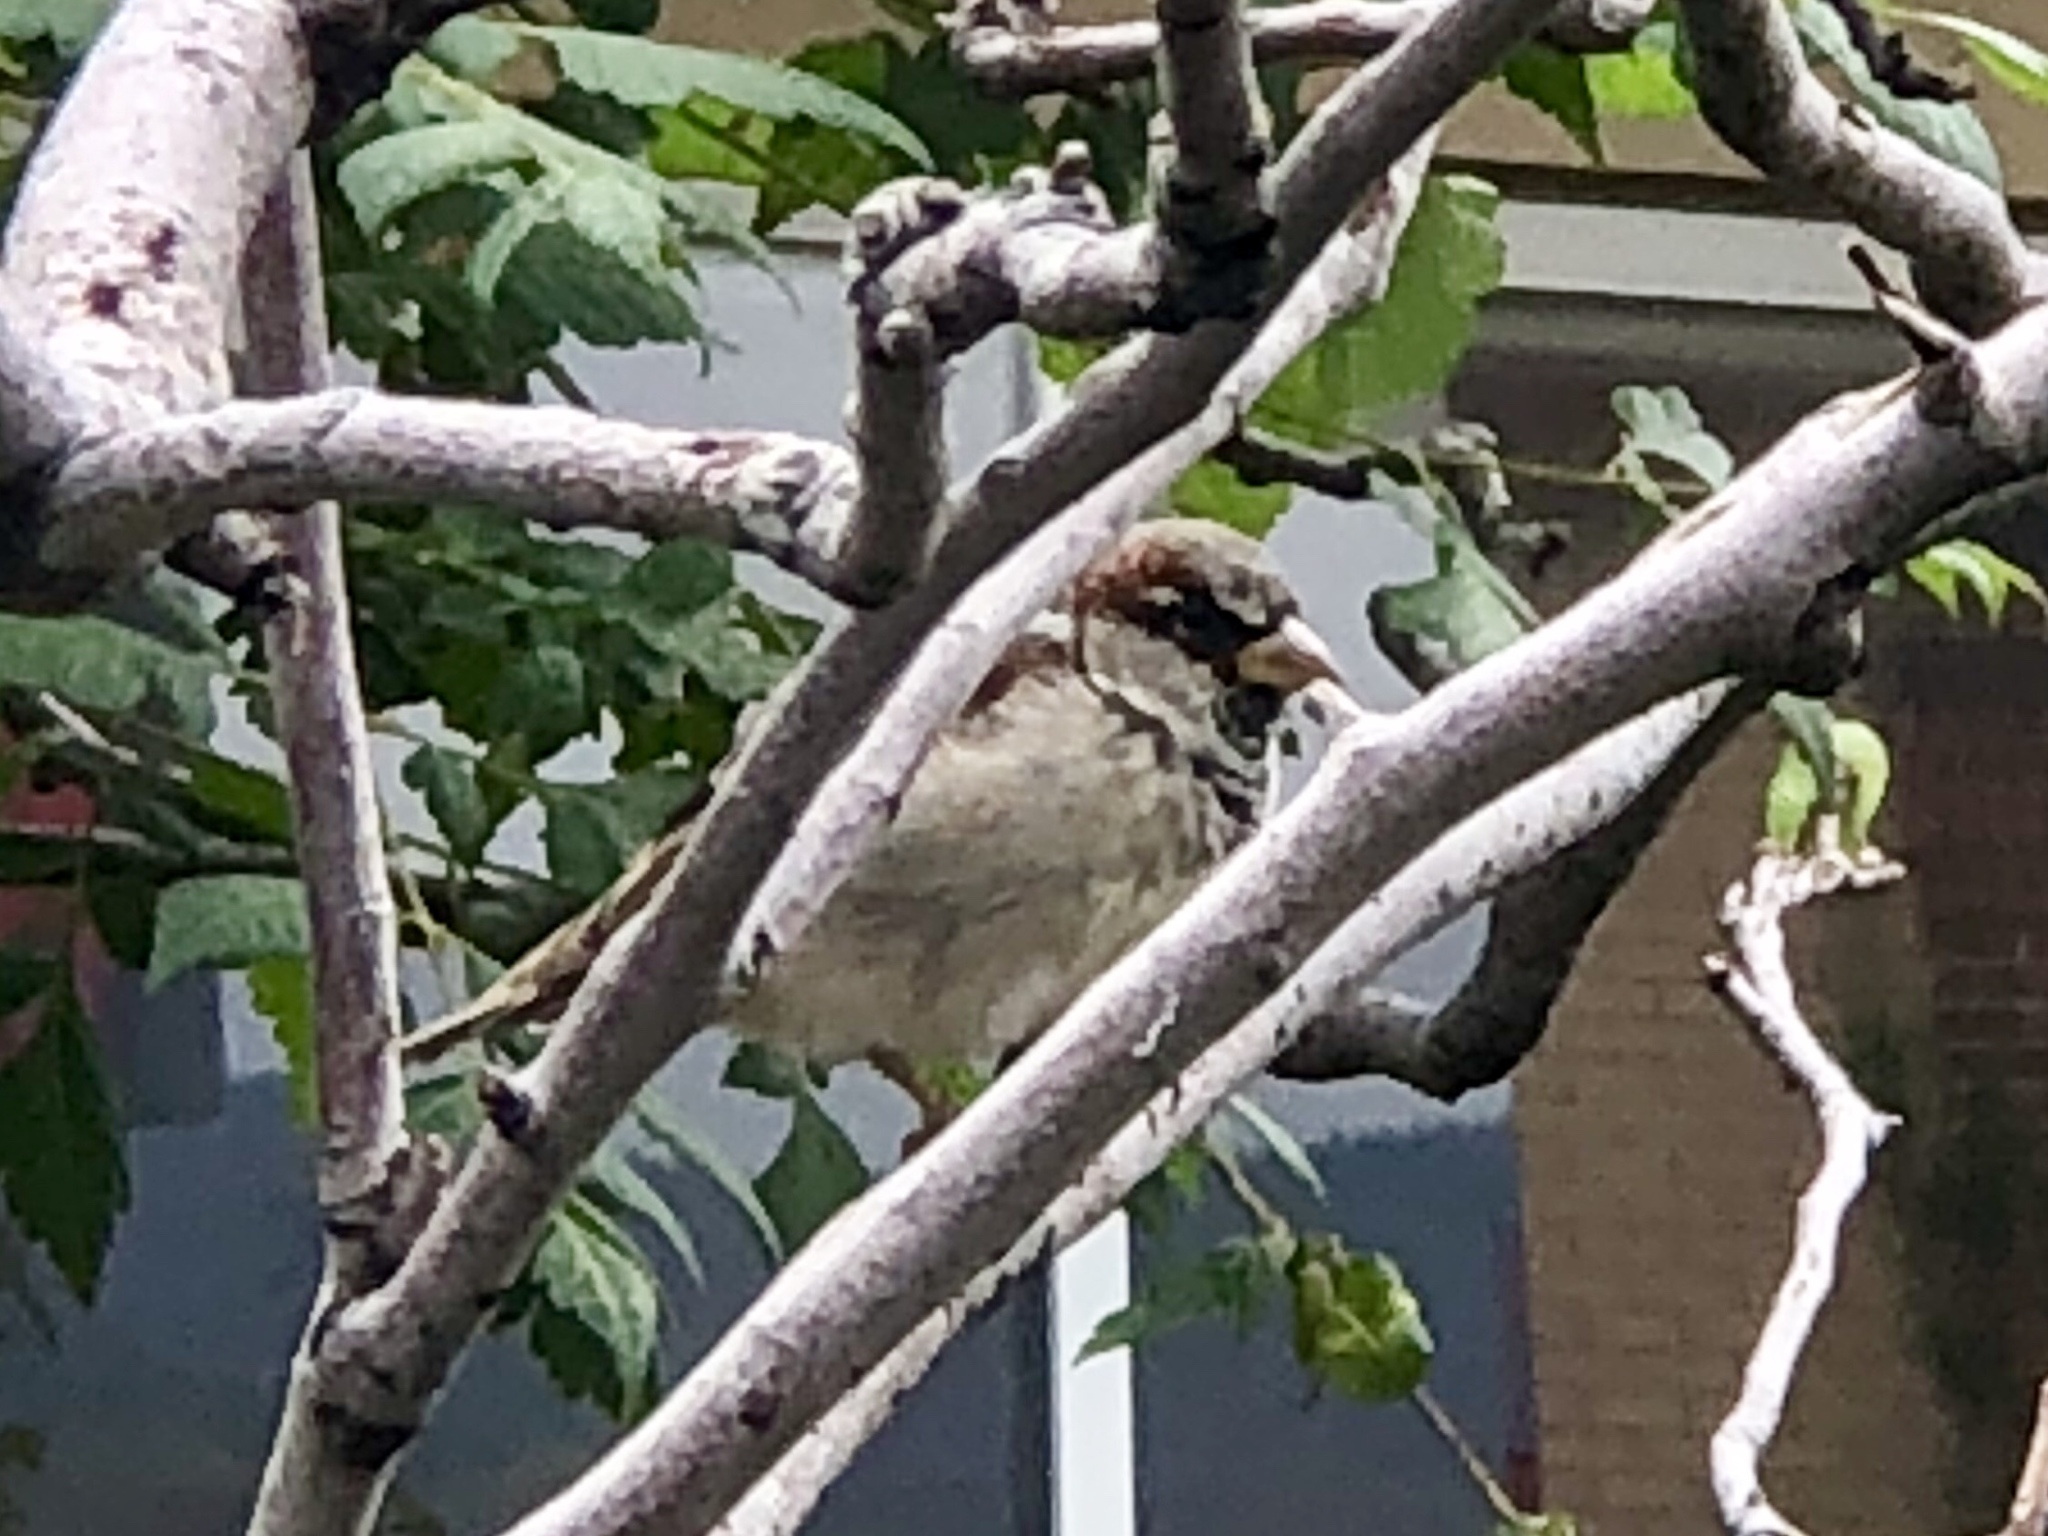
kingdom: Animalia
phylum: Chordata
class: Aves
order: Passeriformes
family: Passeridae
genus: Passer
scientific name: Passer domesticus
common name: House sparrow
